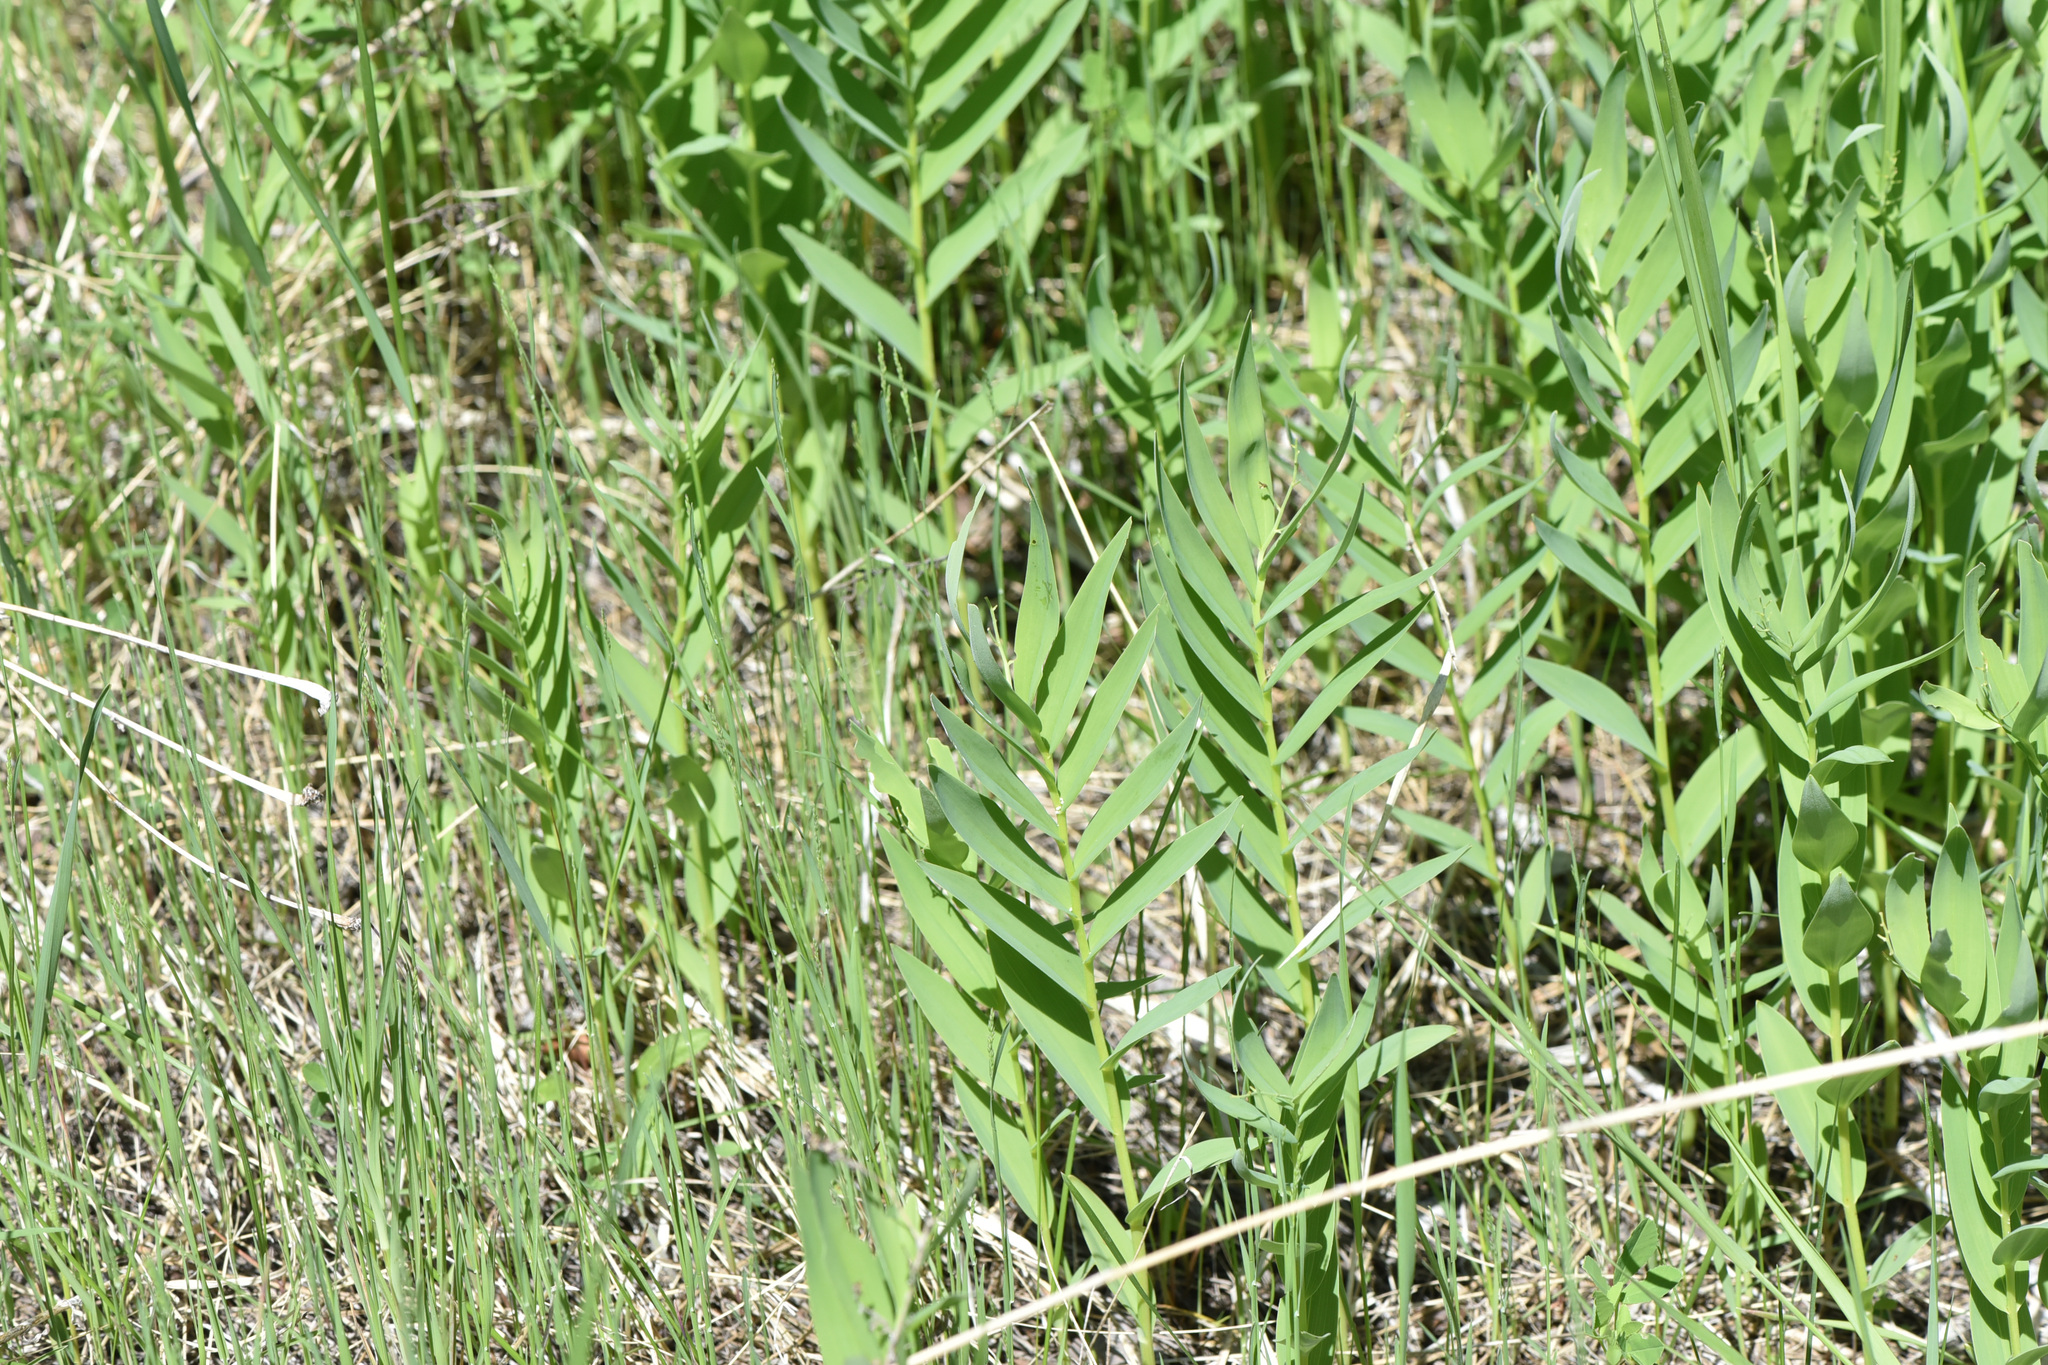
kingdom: Plantae
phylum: Tracheophyta
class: Liliopsida
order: Asparagales
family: Asparagaceae
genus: Maianthemum
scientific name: Maianthemum stellatum
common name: Little false solomon's seal
